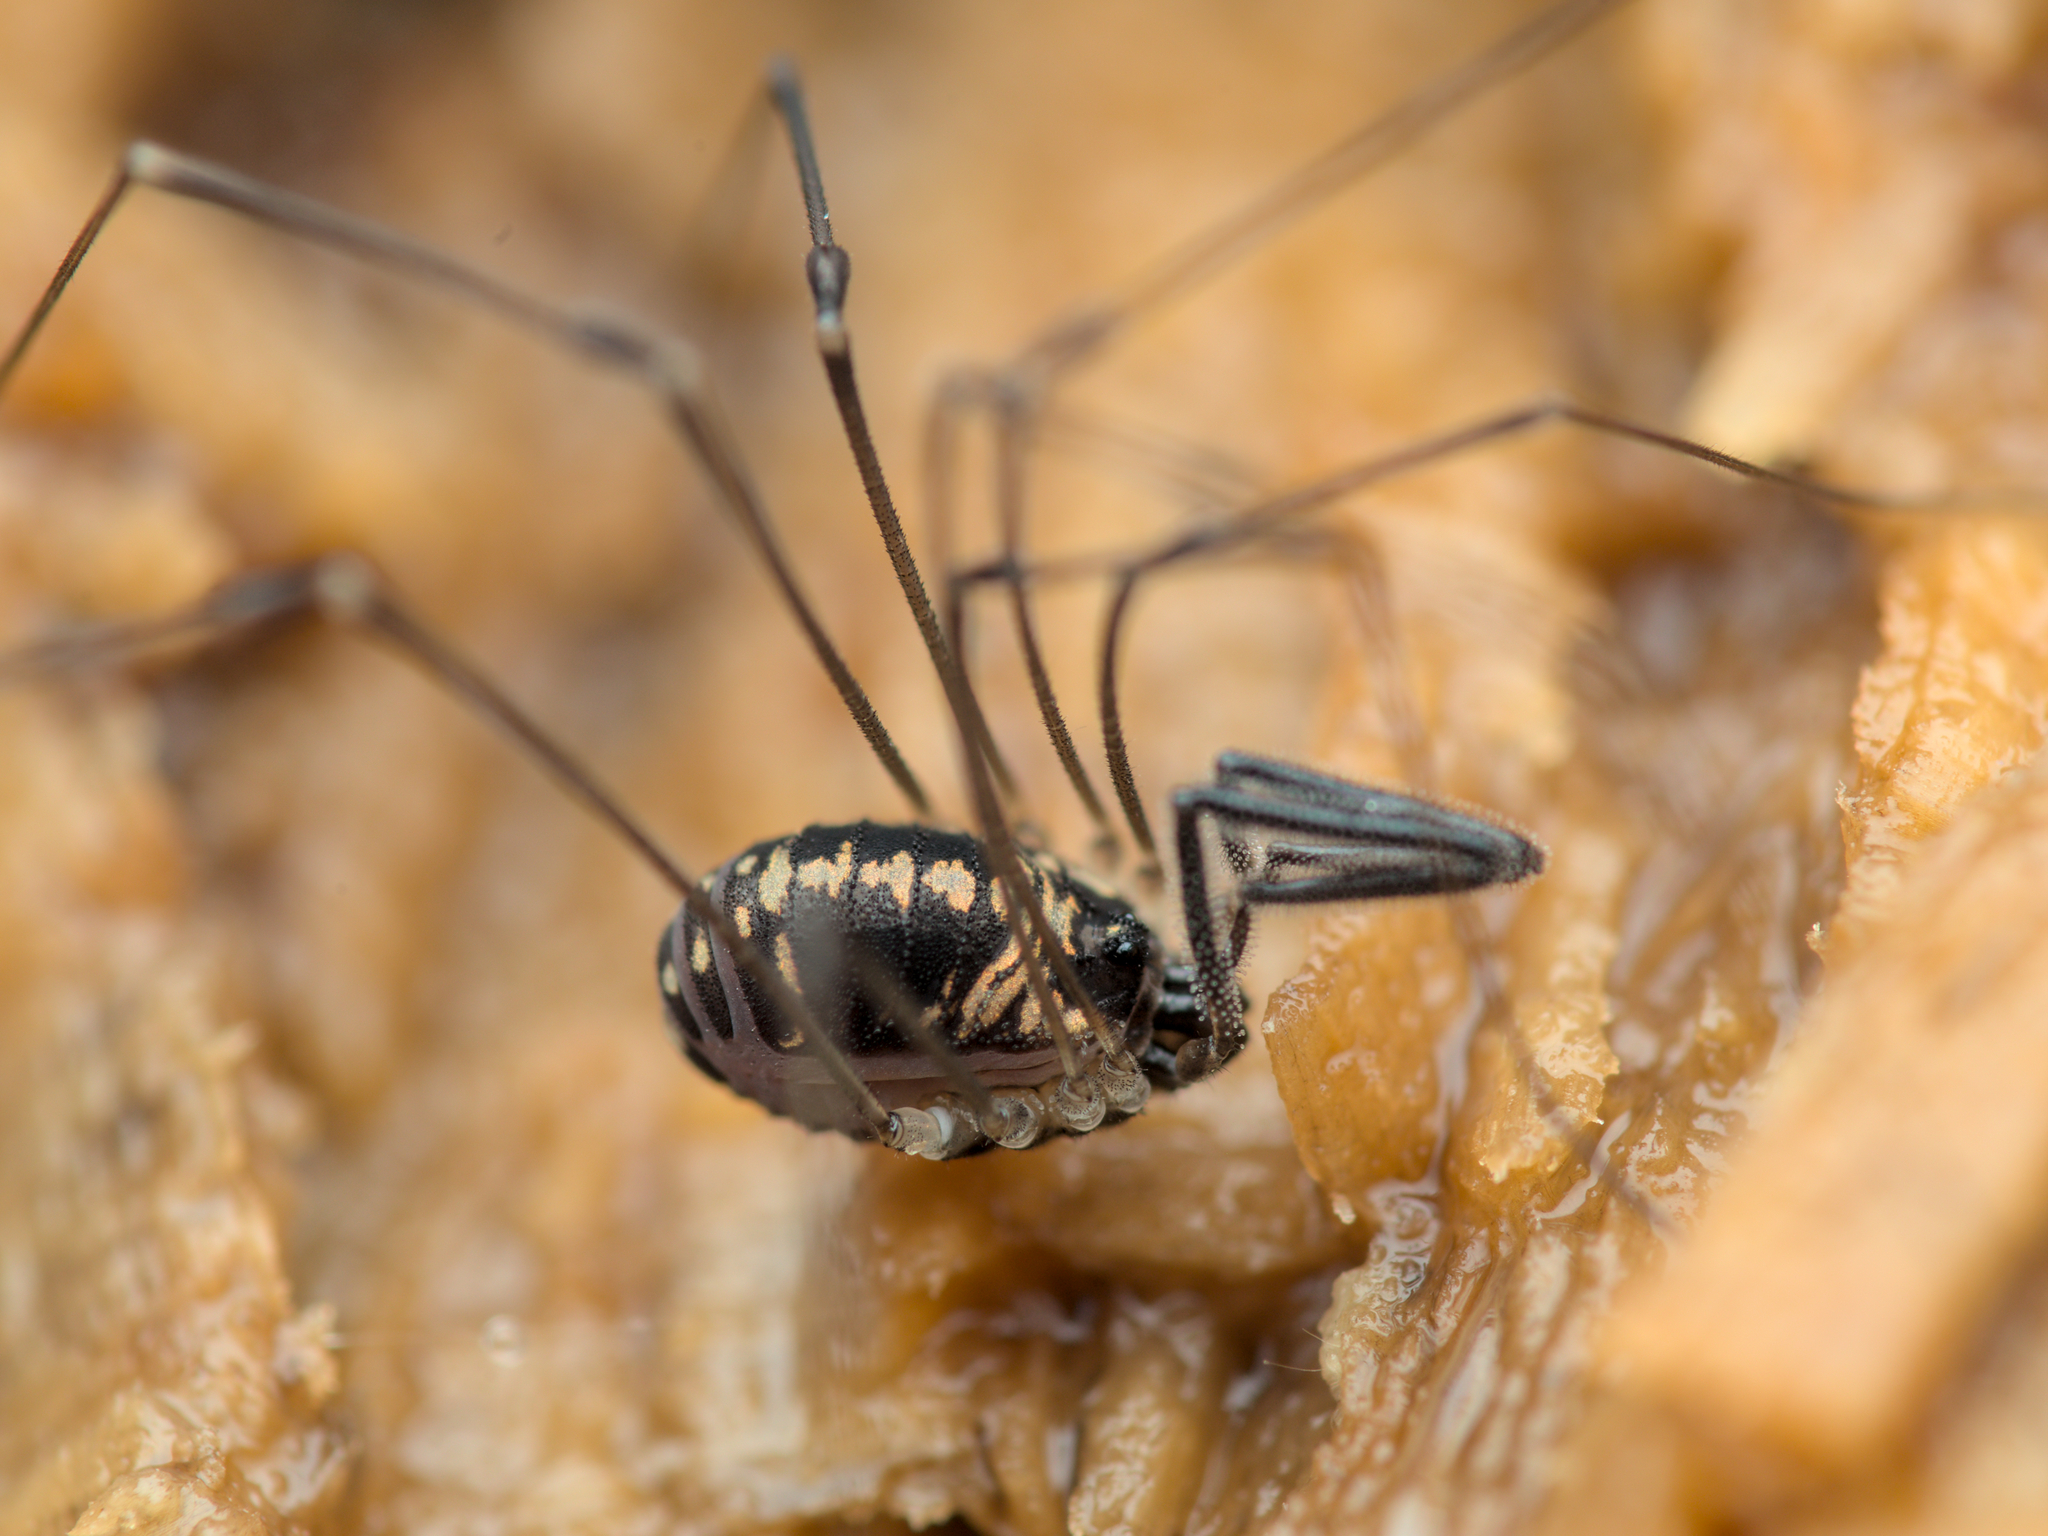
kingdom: Animalia
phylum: Arthropoda
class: Arachnida
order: Opiliones
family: Nemastomatidae
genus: Mitostoma
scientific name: Mitostoma pyrenaeum
